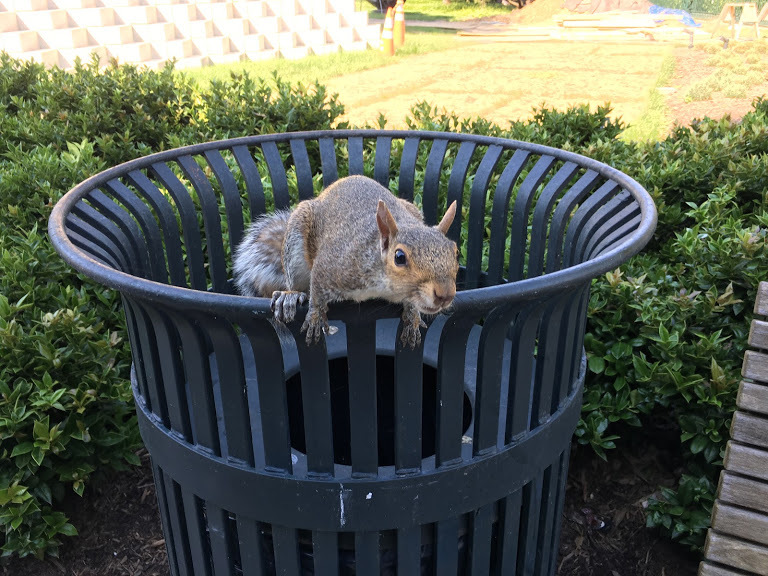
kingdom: Animalia
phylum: Chordata
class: Mammalia
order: Rodentia
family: Sciuridae
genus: Sciurus
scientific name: Sciurus carolinensis
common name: Eastern gray squirrel
